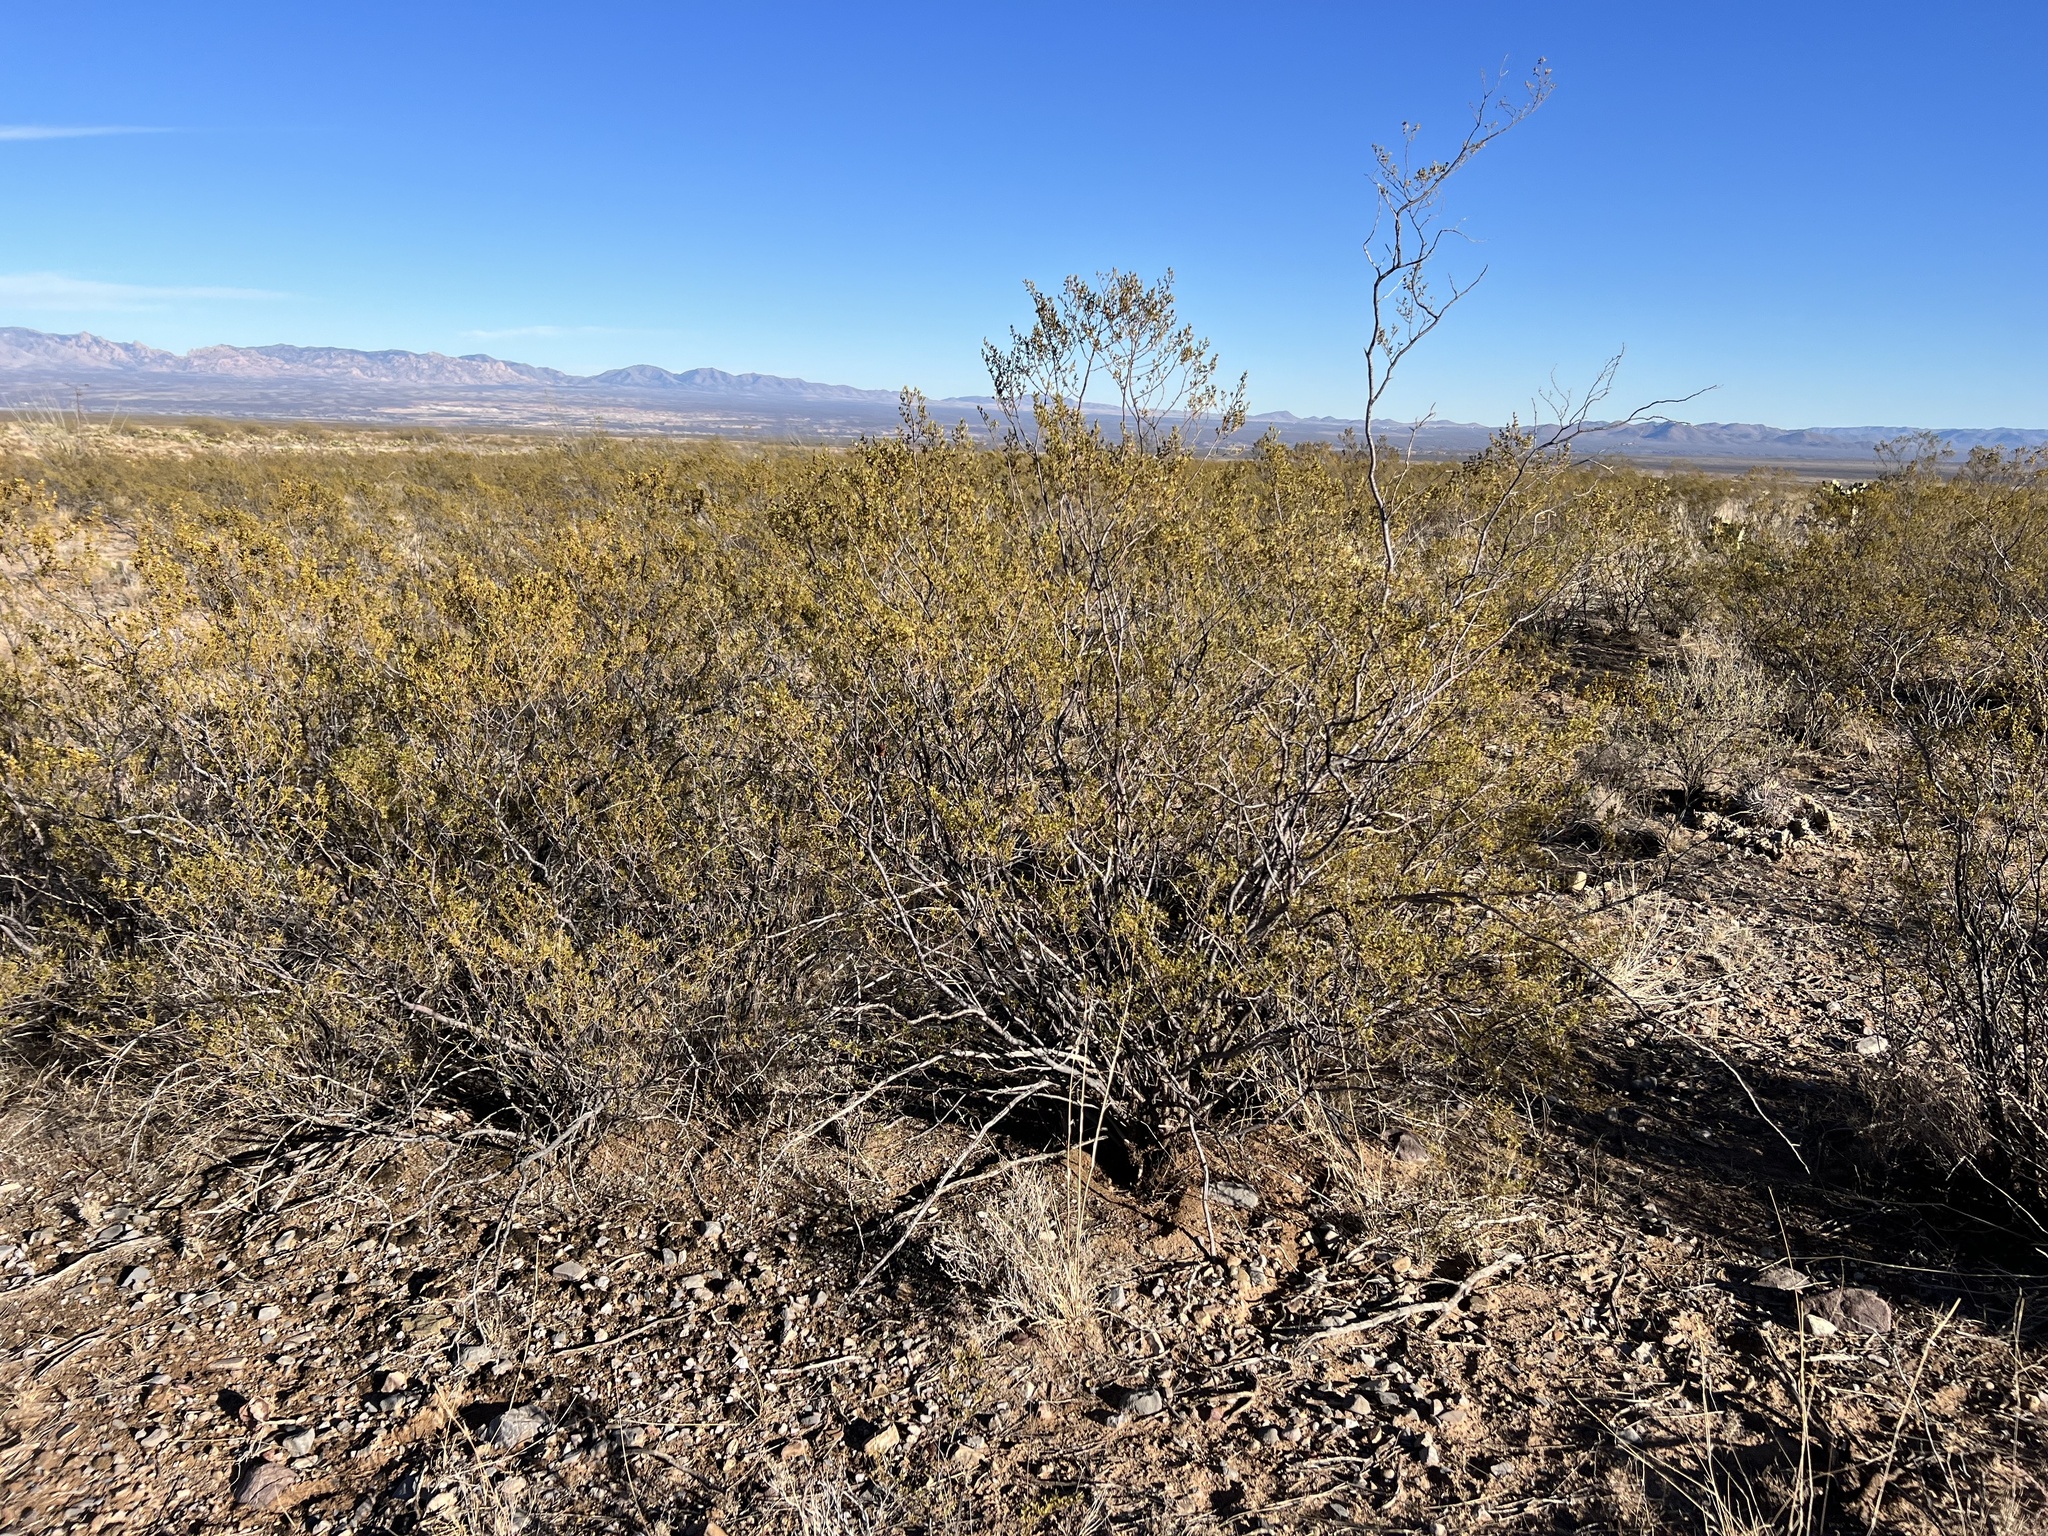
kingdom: Plantae
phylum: Tracheophyta
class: Magnoliopsida
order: Zygophyllales
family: Zygophyllaceae
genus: Larrea
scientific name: Larrea tridentata
